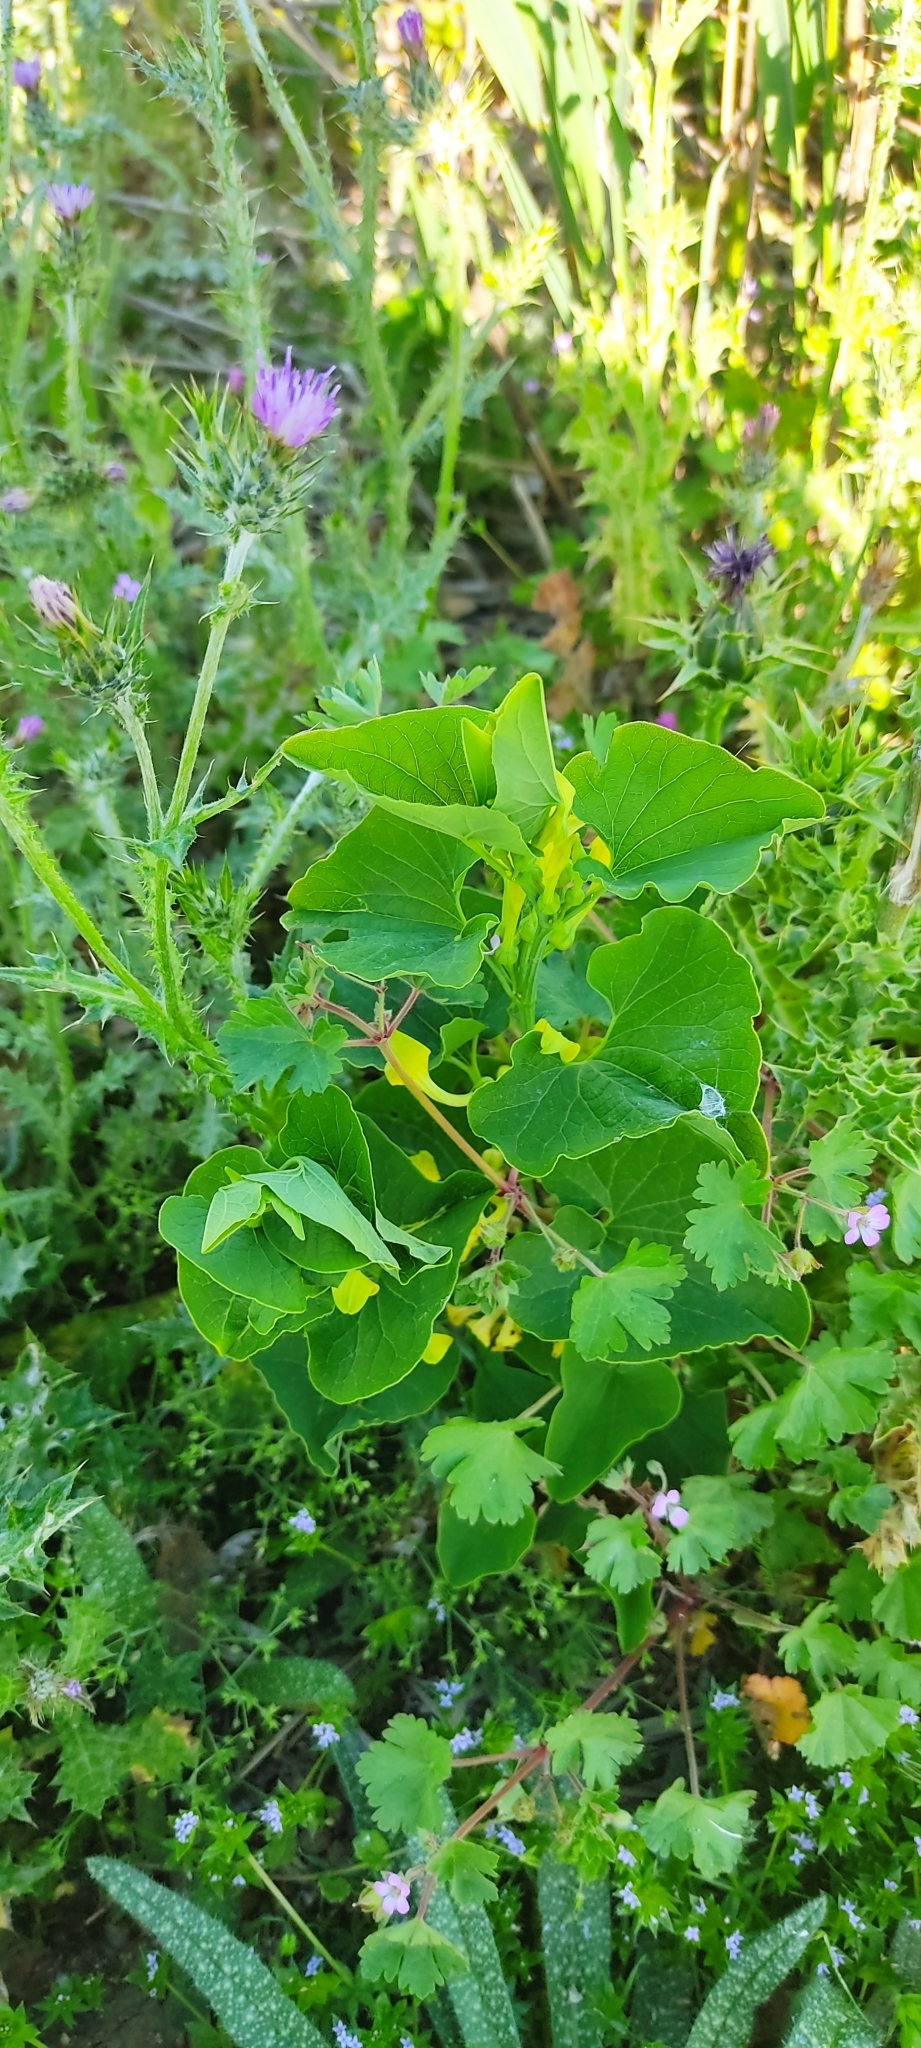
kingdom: Plantae
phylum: Tracheophyta
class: Magnoliopsida
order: Piperales
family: Aristolochiaceae
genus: Aristolochia
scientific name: Aristolochia clematitis
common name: Birthwort
